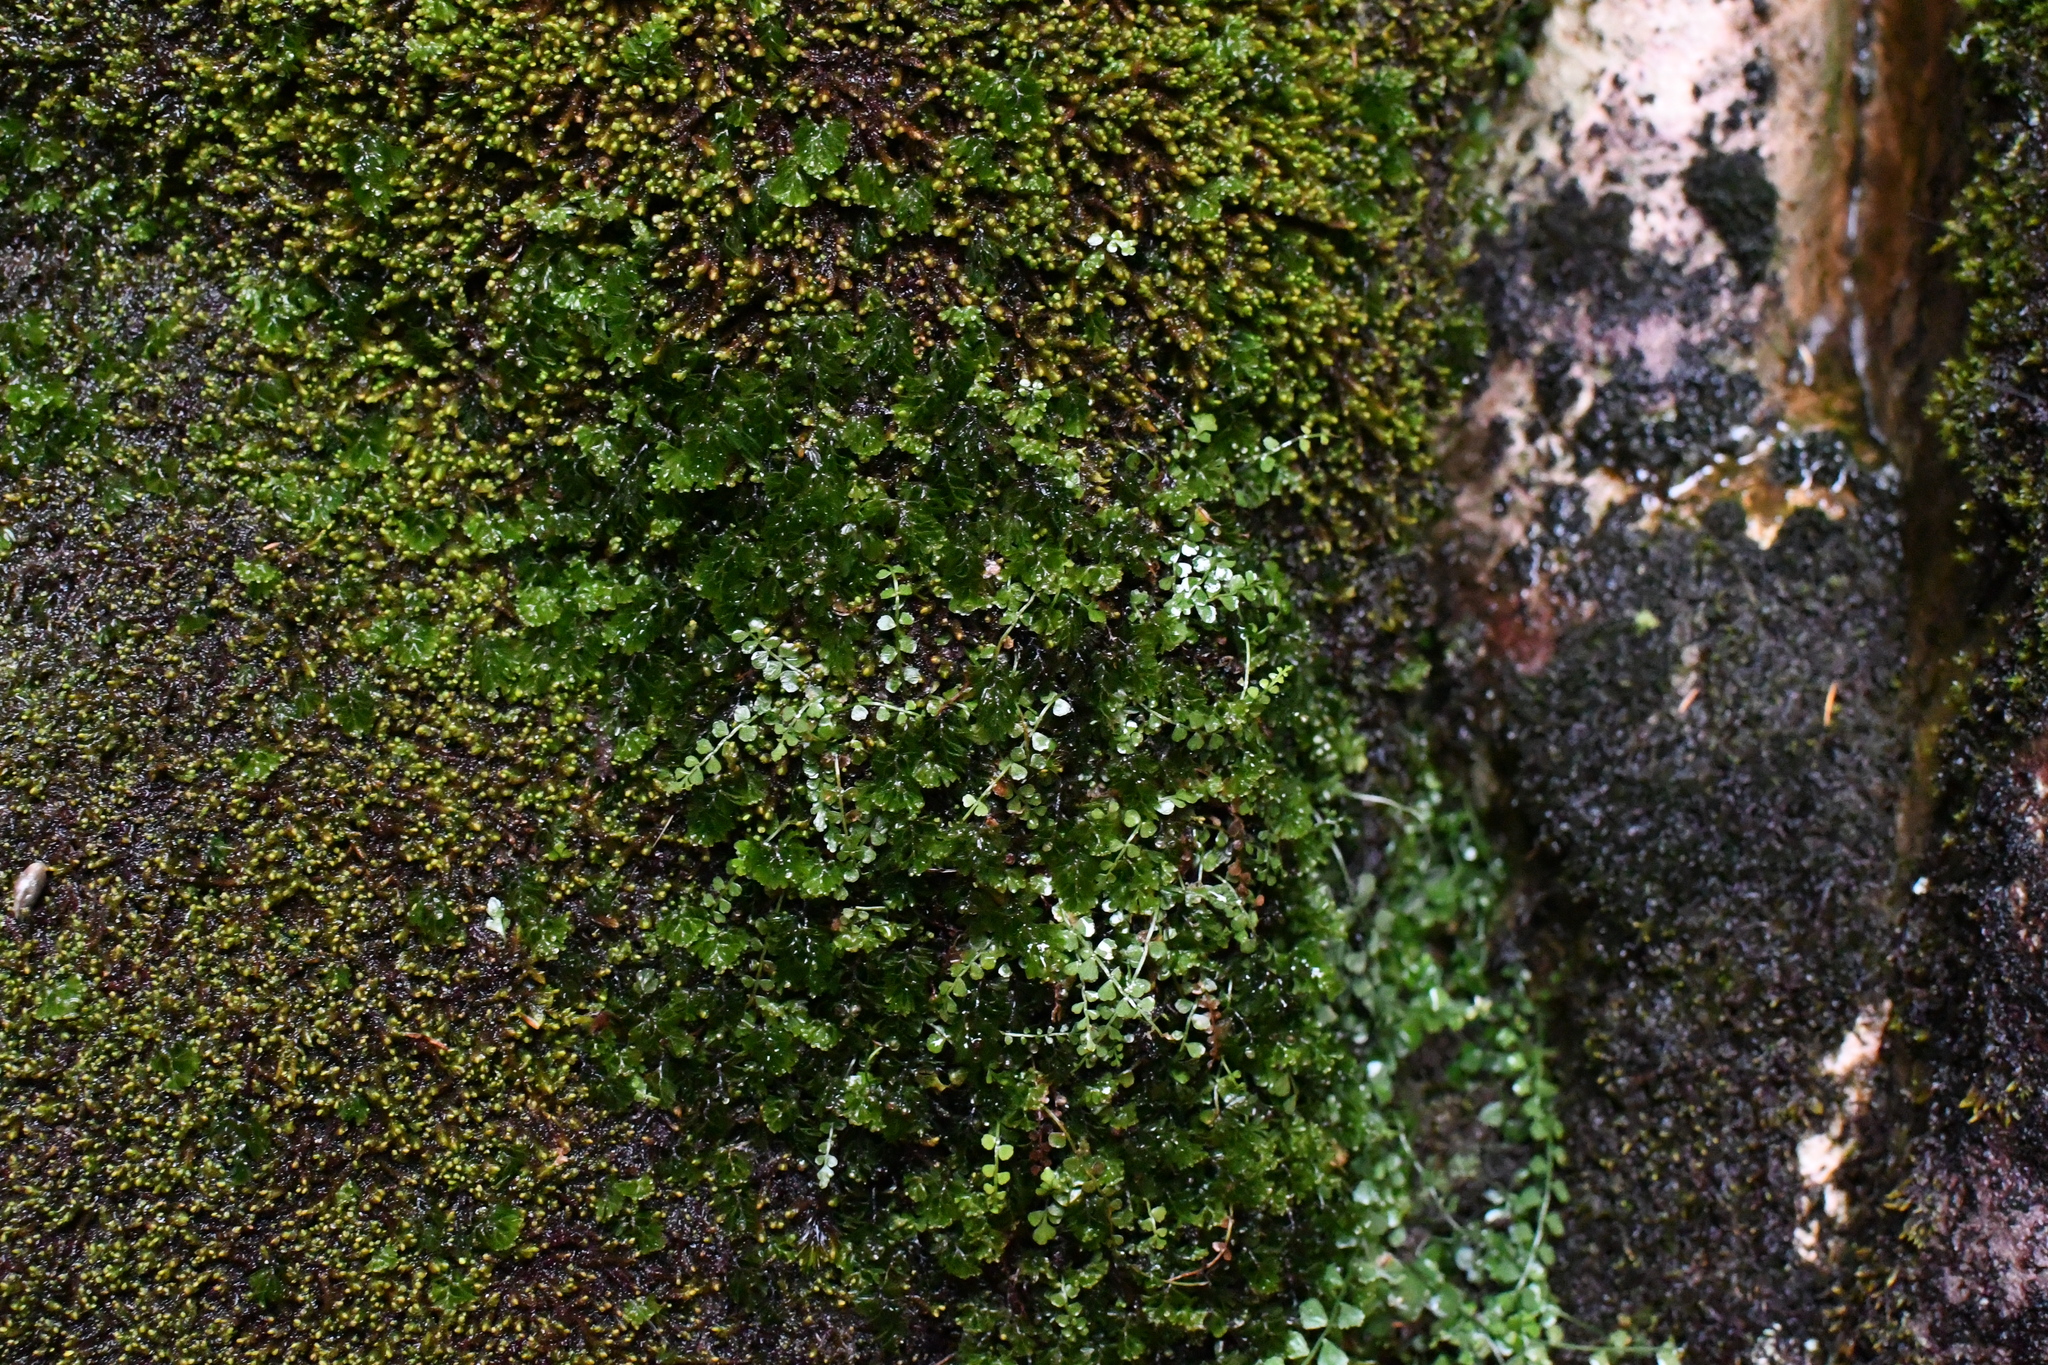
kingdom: Plantae
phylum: Tracheophyta
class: Polypodiopsida
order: Polypodiales
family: Aspleniaceae
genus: Asplenium
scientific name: Asplenium flabellifolium
